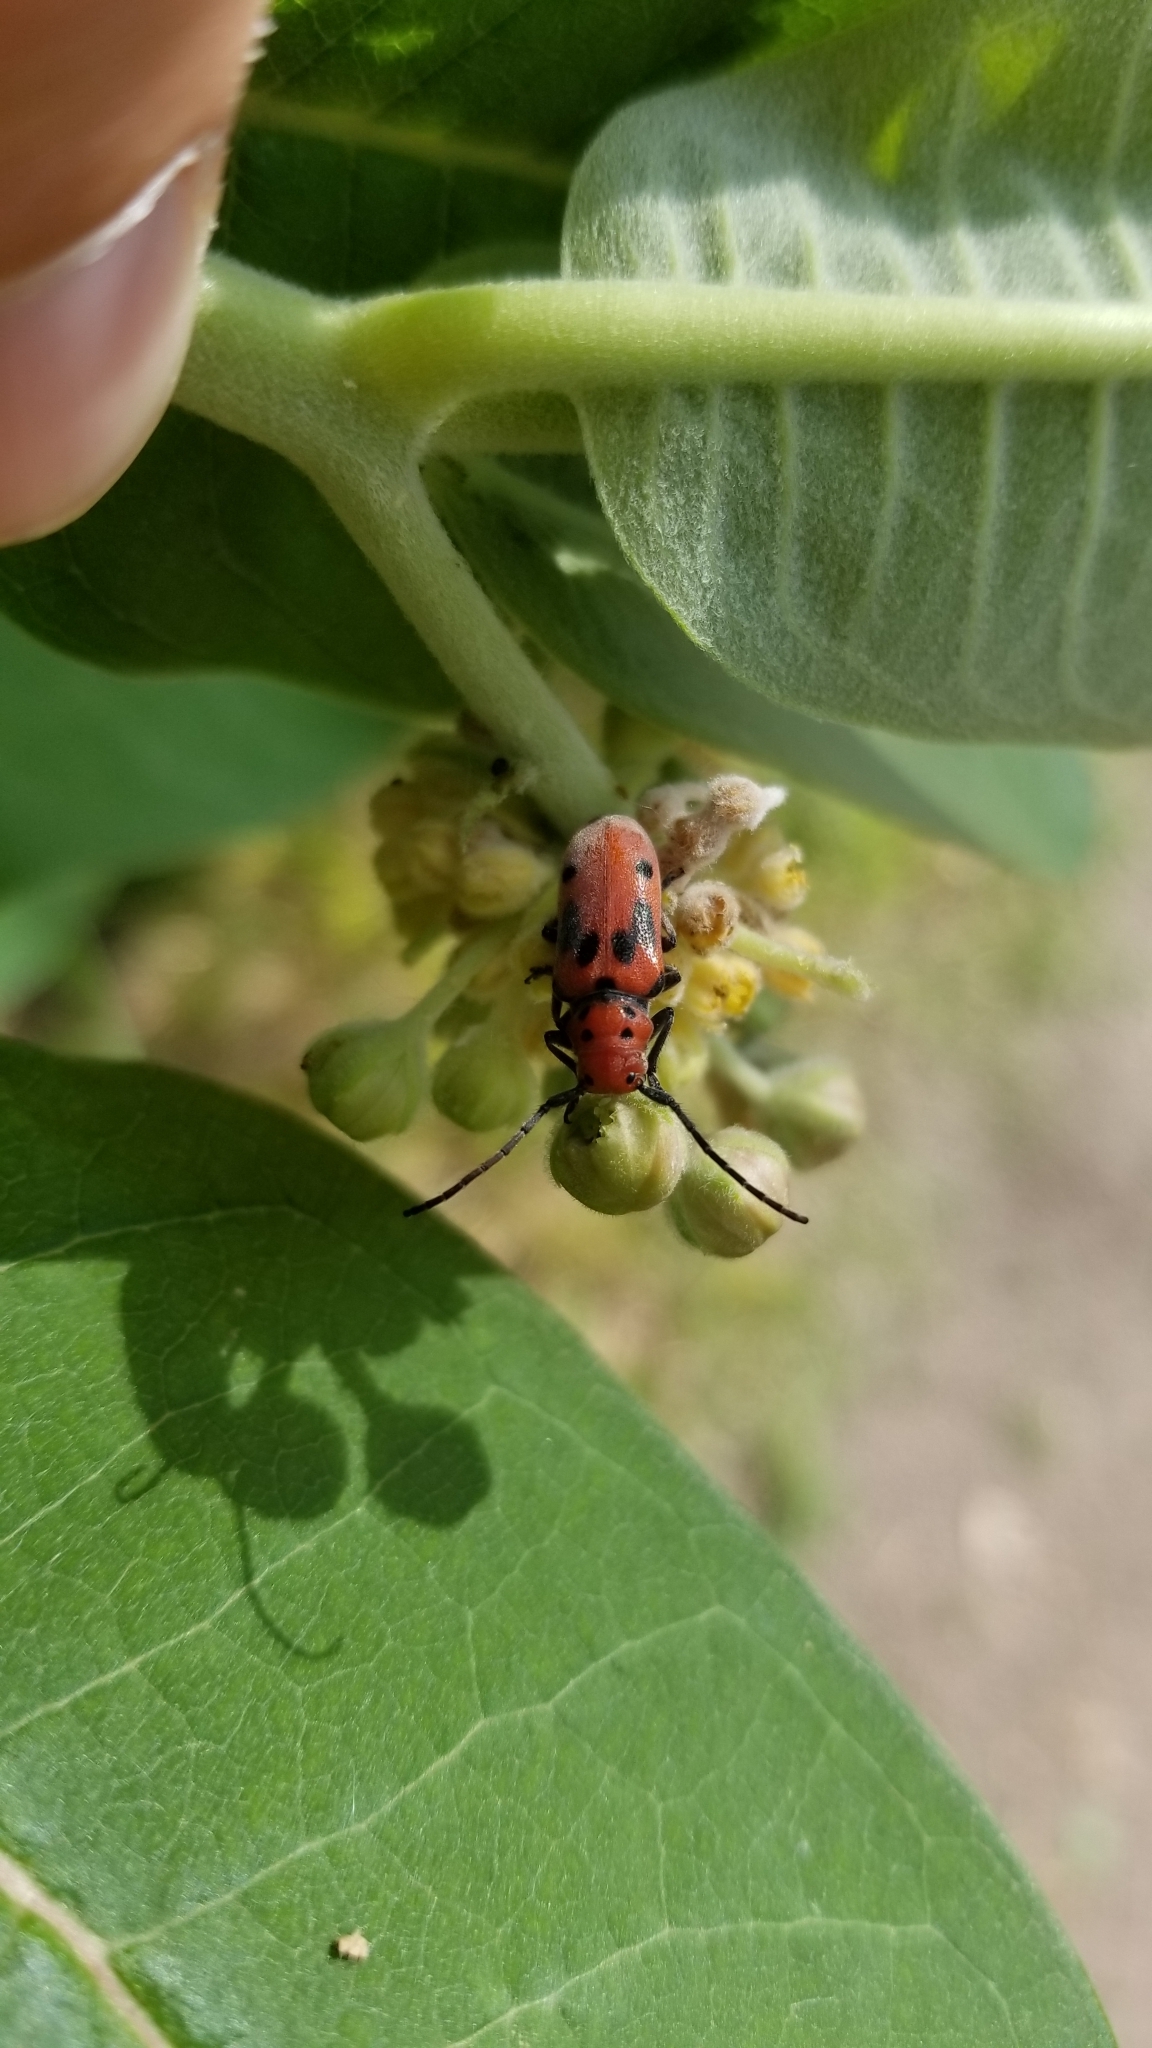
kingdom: Animalia
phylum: Arthropoda
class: Insecta
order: Coleoptera
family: Cerambycidae
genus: Tetraopes
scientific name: Tetraopes tetrophthalmus
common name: Red milkweed beetle
